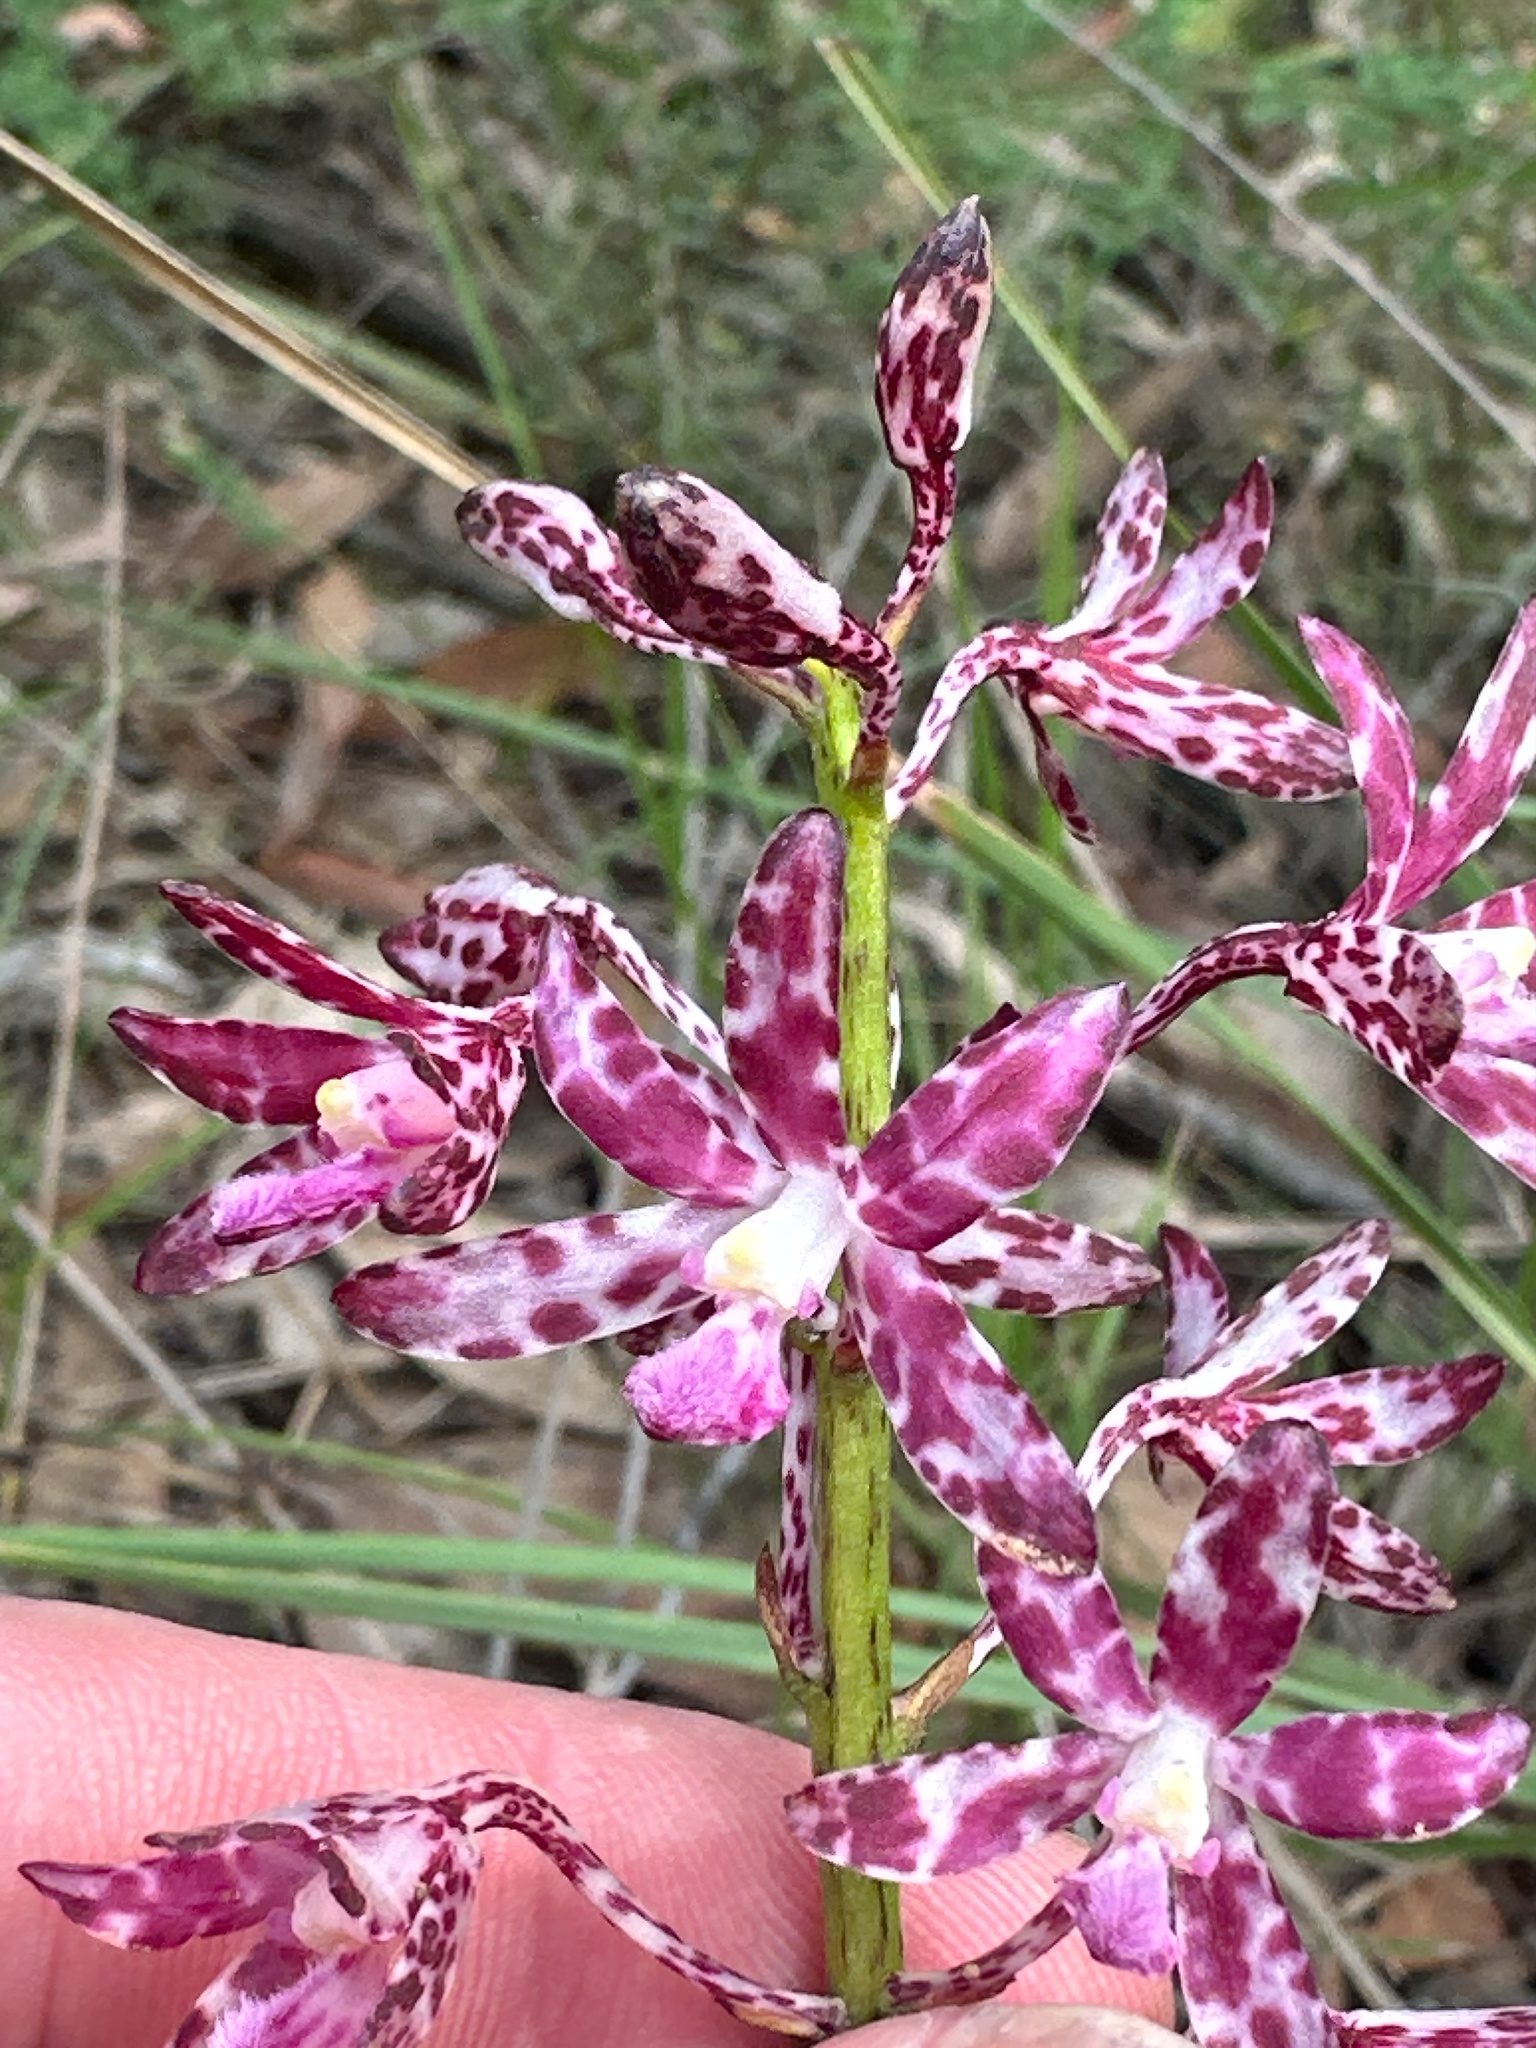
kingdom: Plantae
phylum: Tracheophyta
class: Liliopsida
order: Asparagales
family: Orchidaceae
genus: Dipodium
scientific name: Dipodium variegatum
